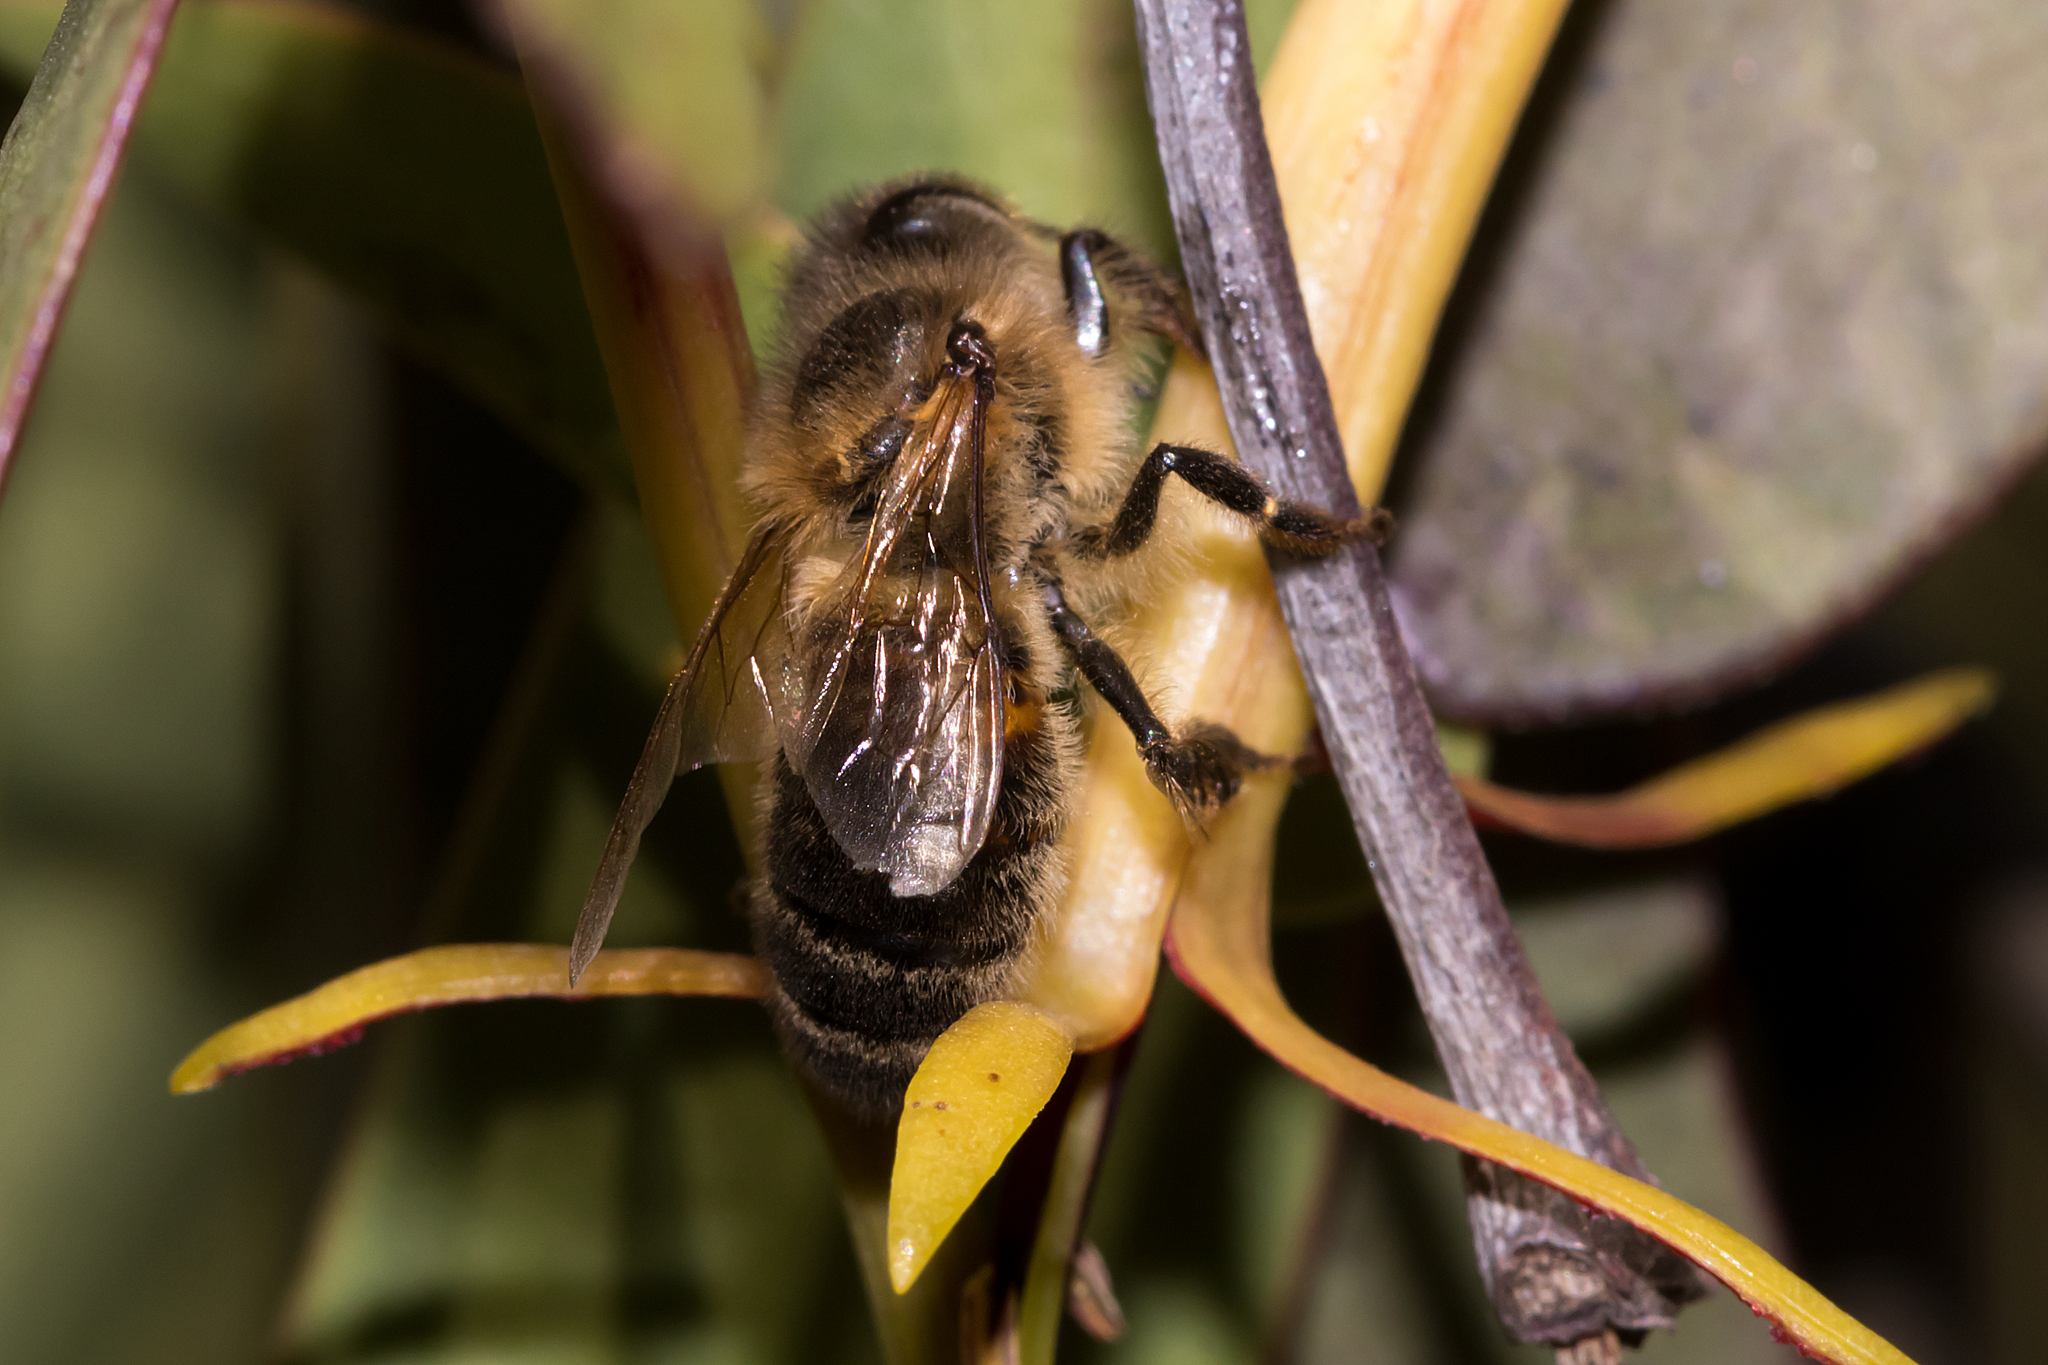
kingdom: Animalia
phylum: Arthropoda
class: Insecta
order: Hymenoptera
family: Apidae
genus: Apis
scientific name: Apis mellifera
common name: Honey bee
